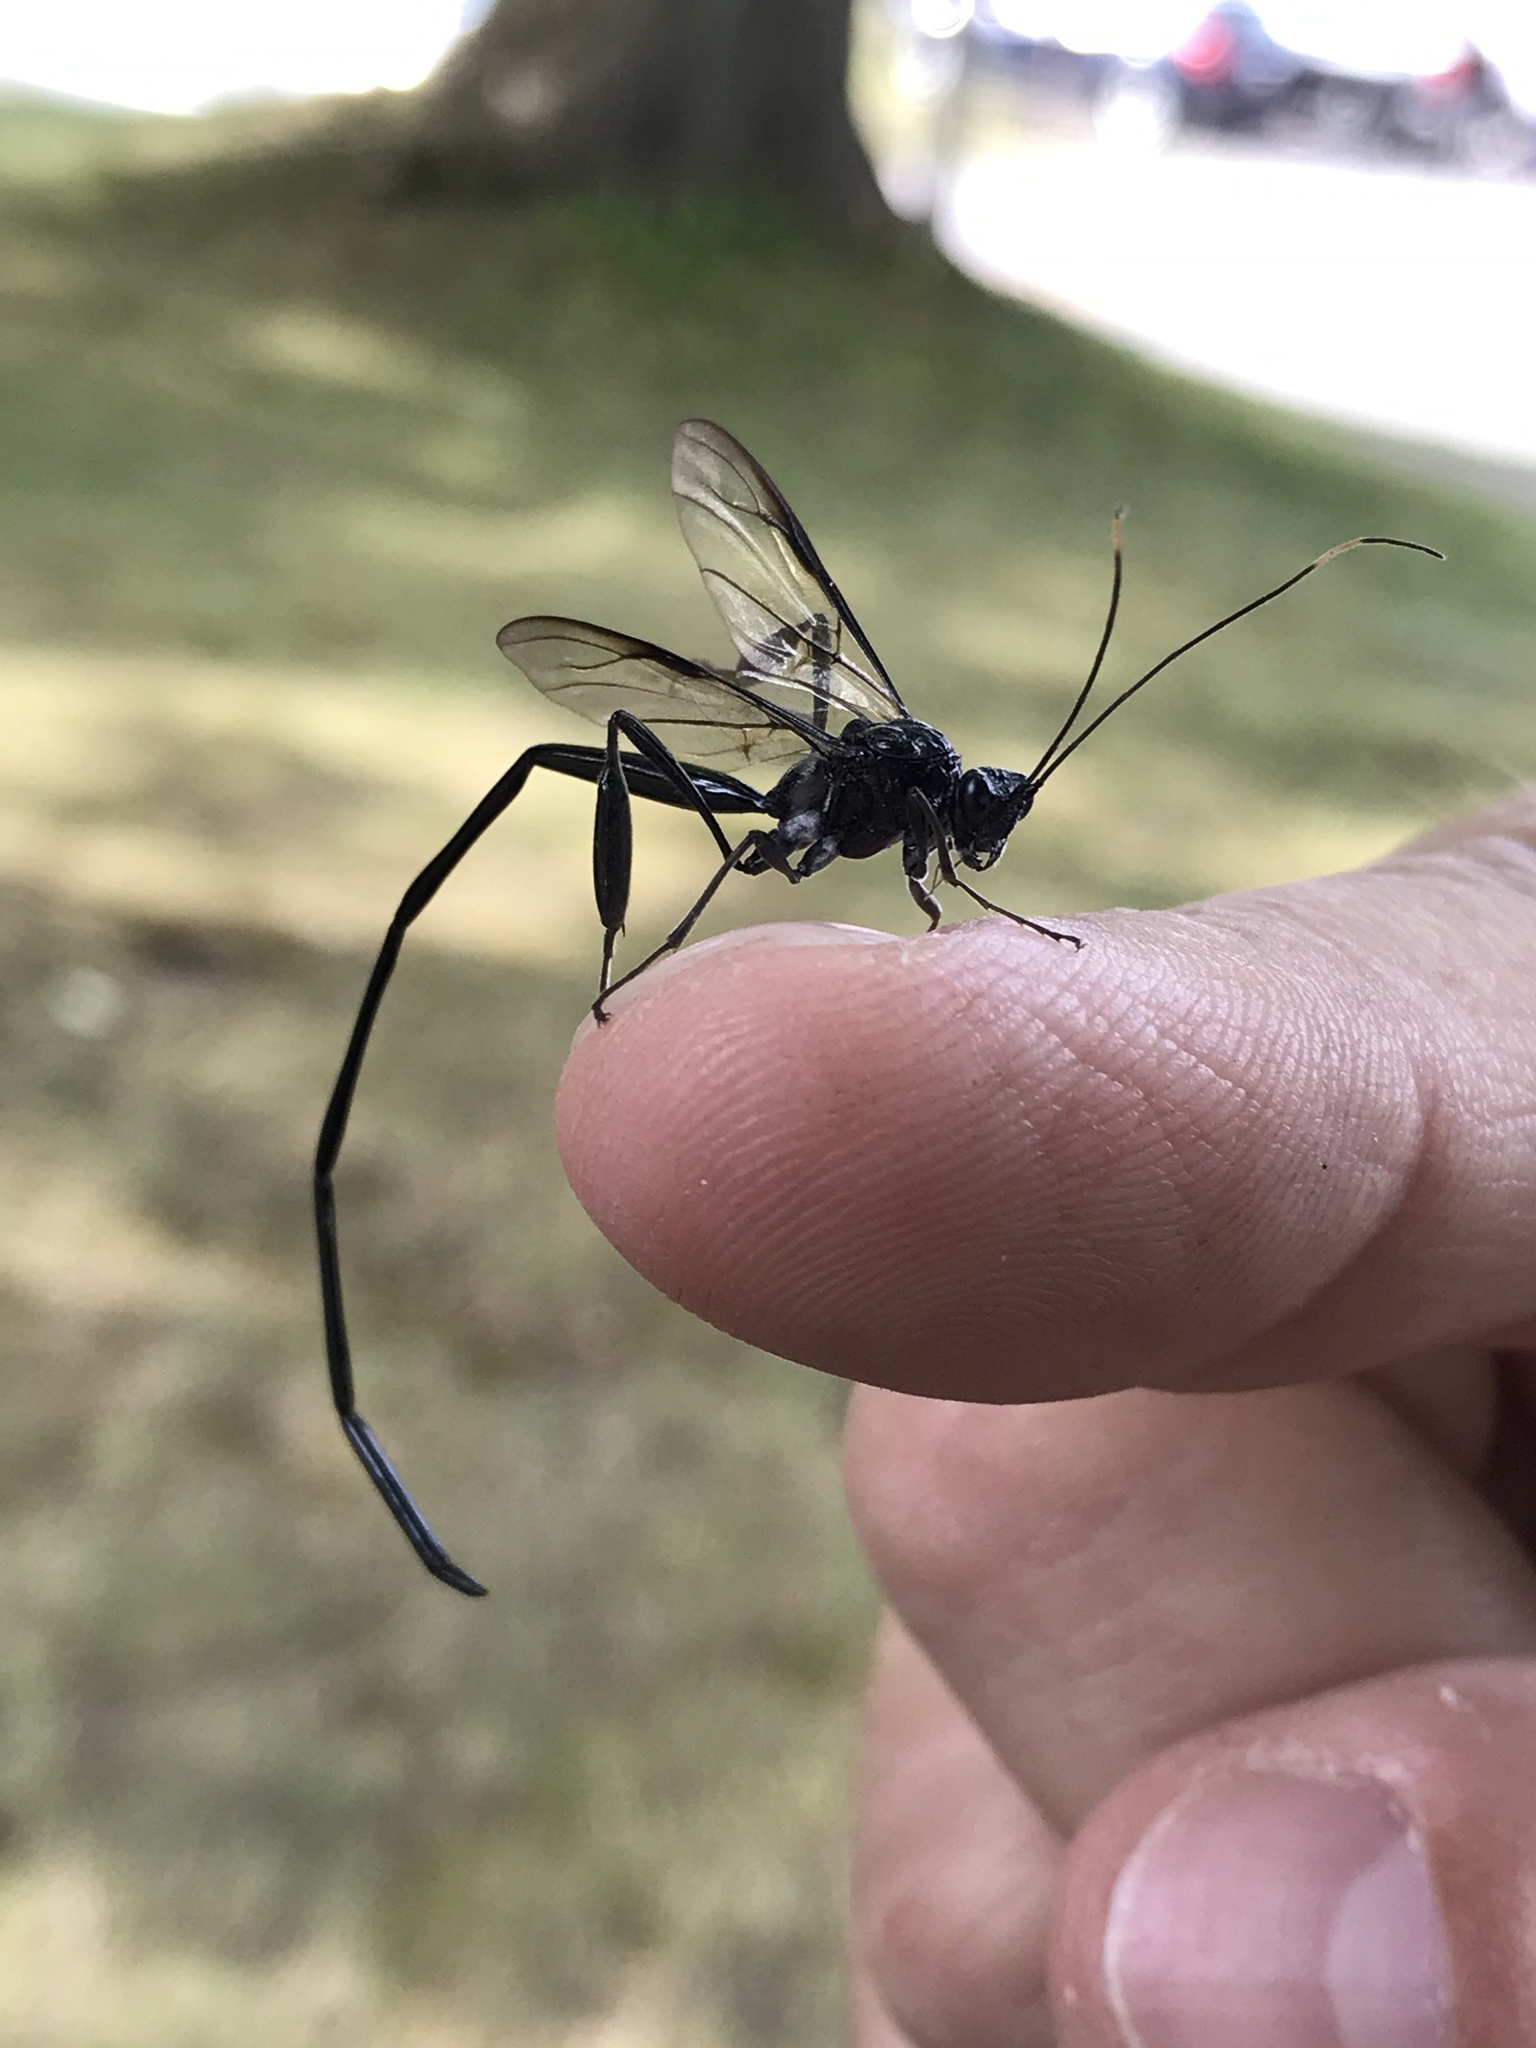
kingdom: Animalia
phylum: Arthropoda
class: Insecta
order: Hymenoptera
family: Pelecinidae
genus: Pelecinus
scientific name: Pelecinus polyturator
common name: American pelecinid wasp
